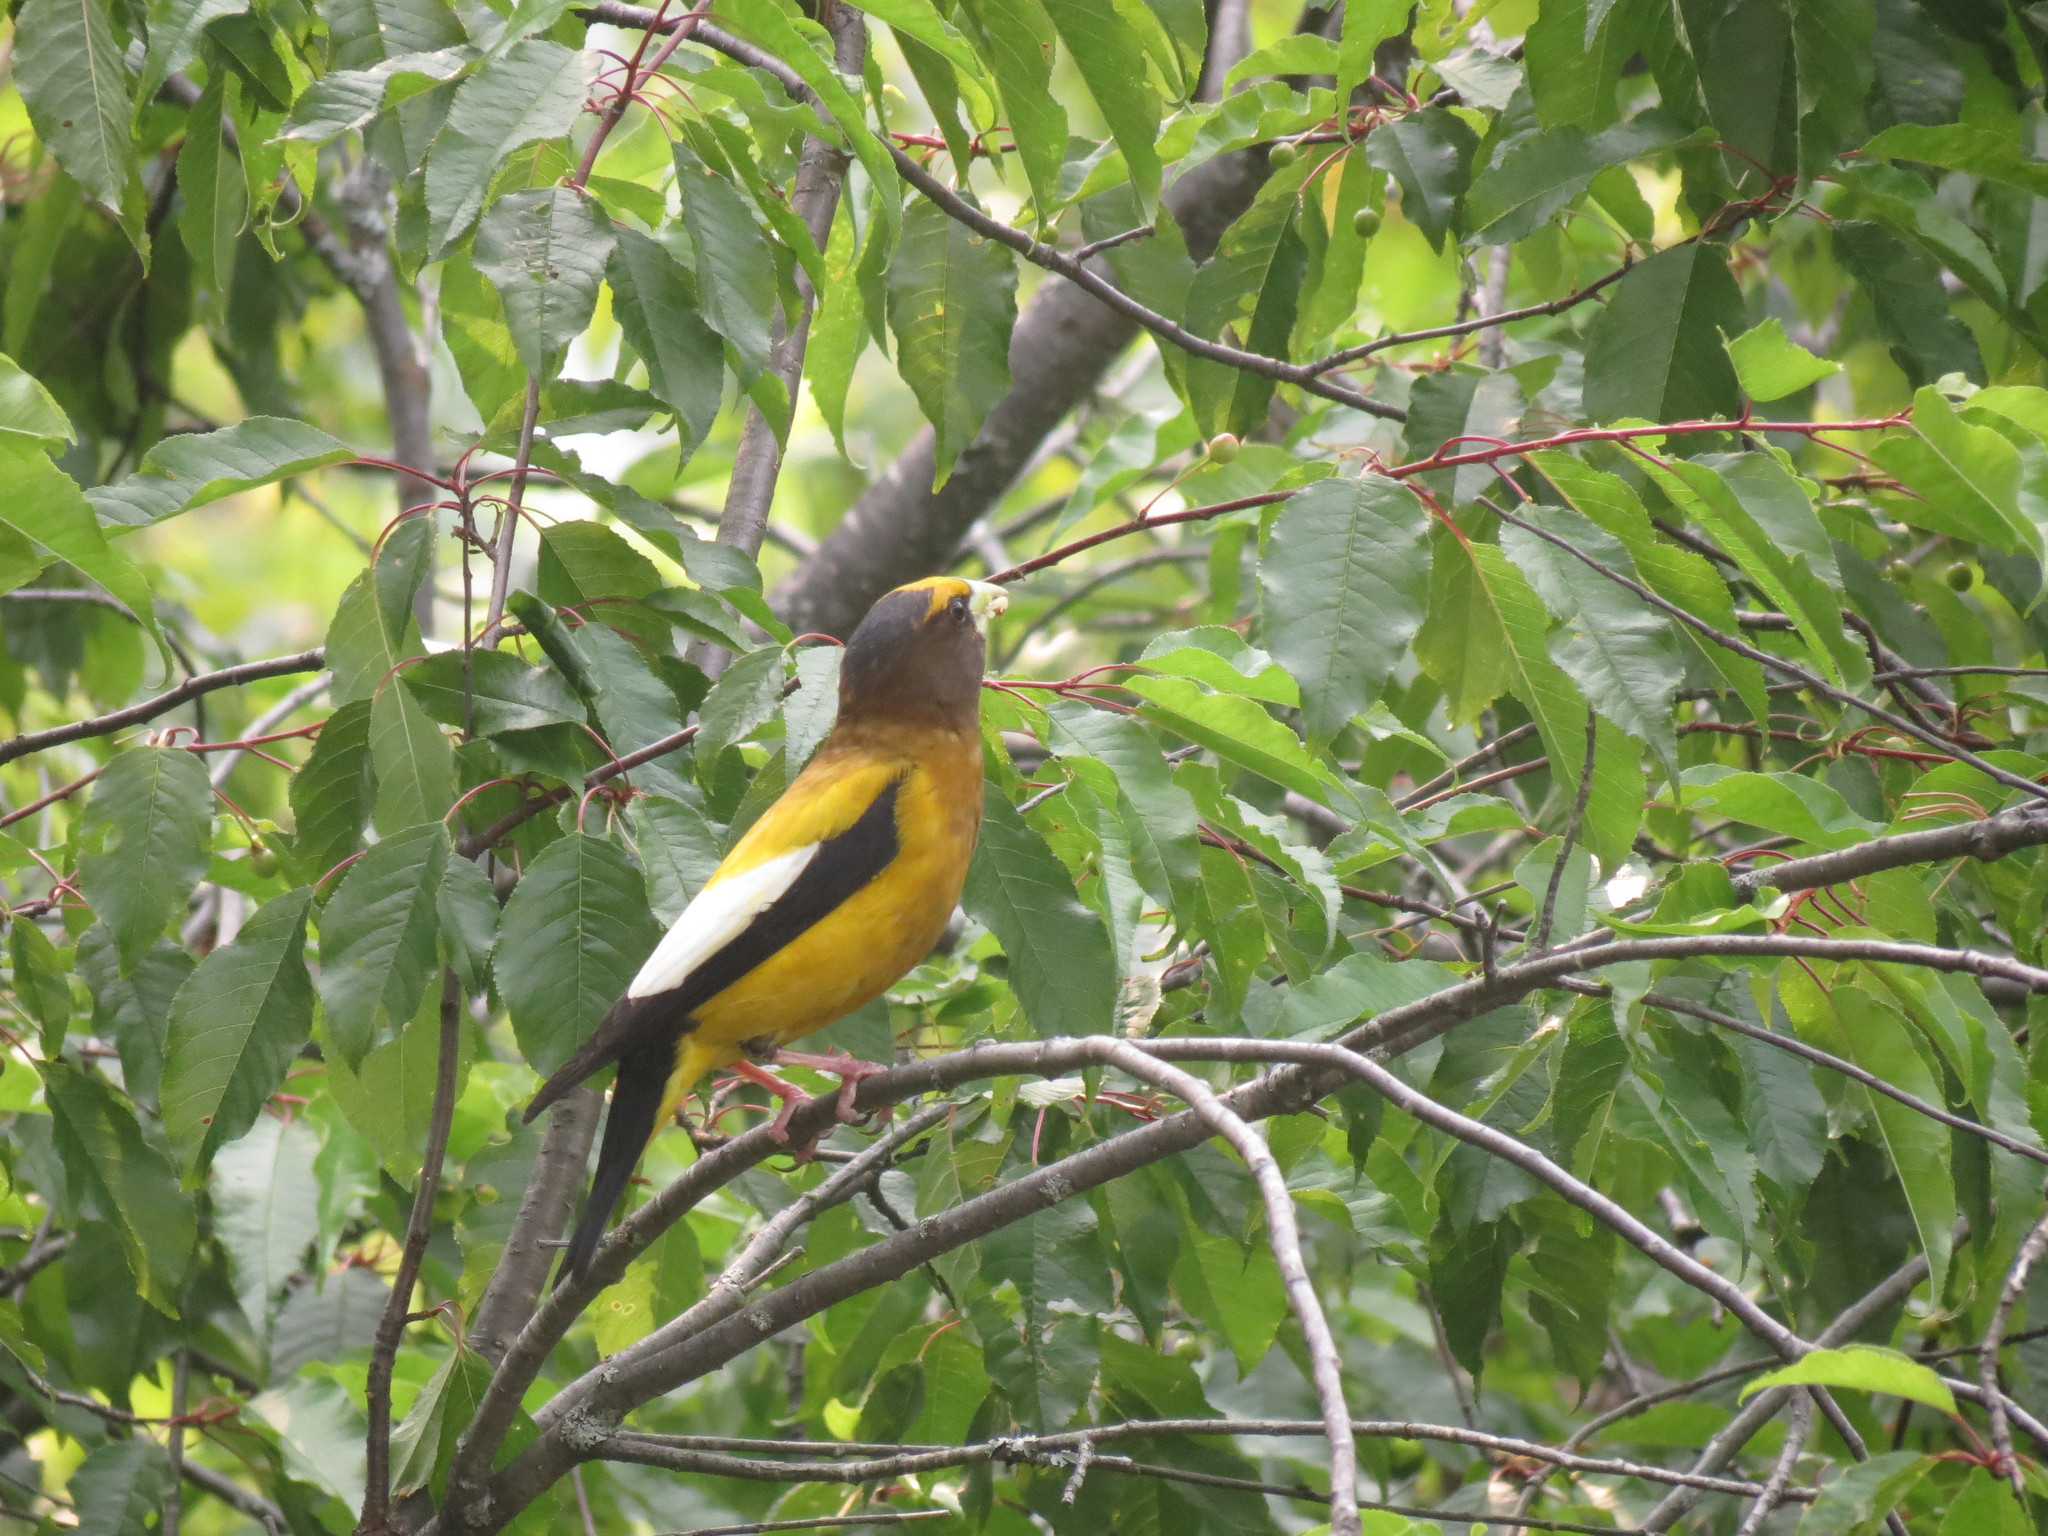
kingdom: Plantae
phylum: Tracheophyta
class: Magnoliopsida
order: Rosales
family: Rosaceae
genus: Prunus
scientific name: Prunus pensylvanica
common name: Pin cherry
